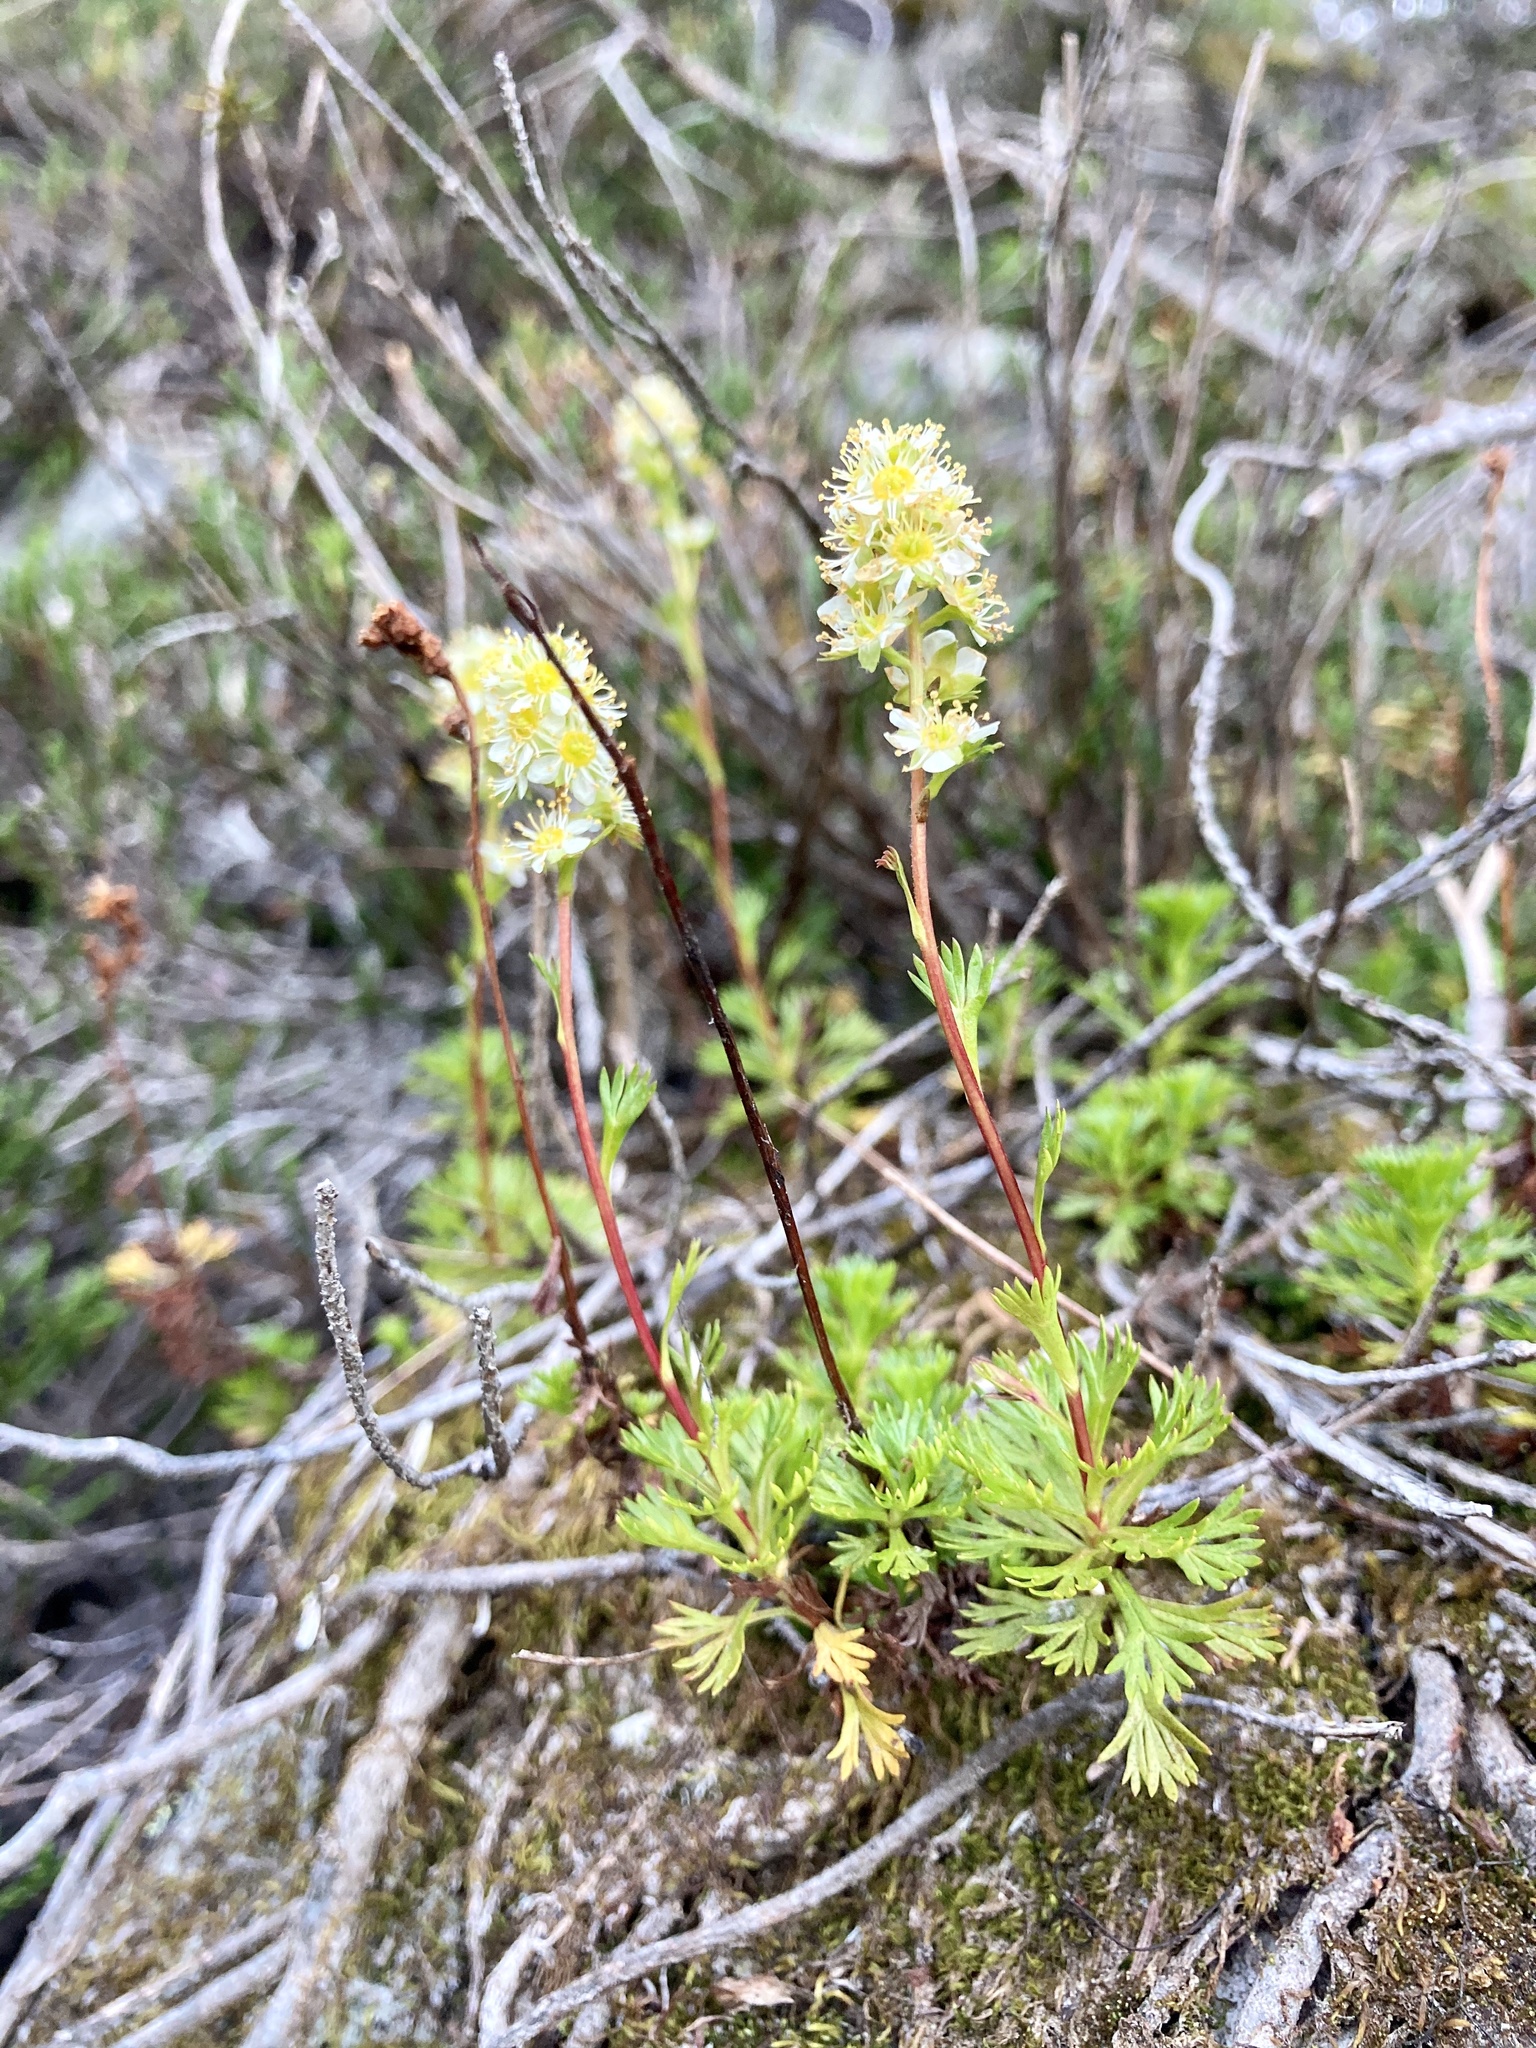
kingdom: Plantae
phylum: Tracheophyta
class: Magnoliopsida
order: Rosales
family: Rosaceae
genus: Luetkea
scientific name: Luetkea pectinata
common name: Partridgefoot
